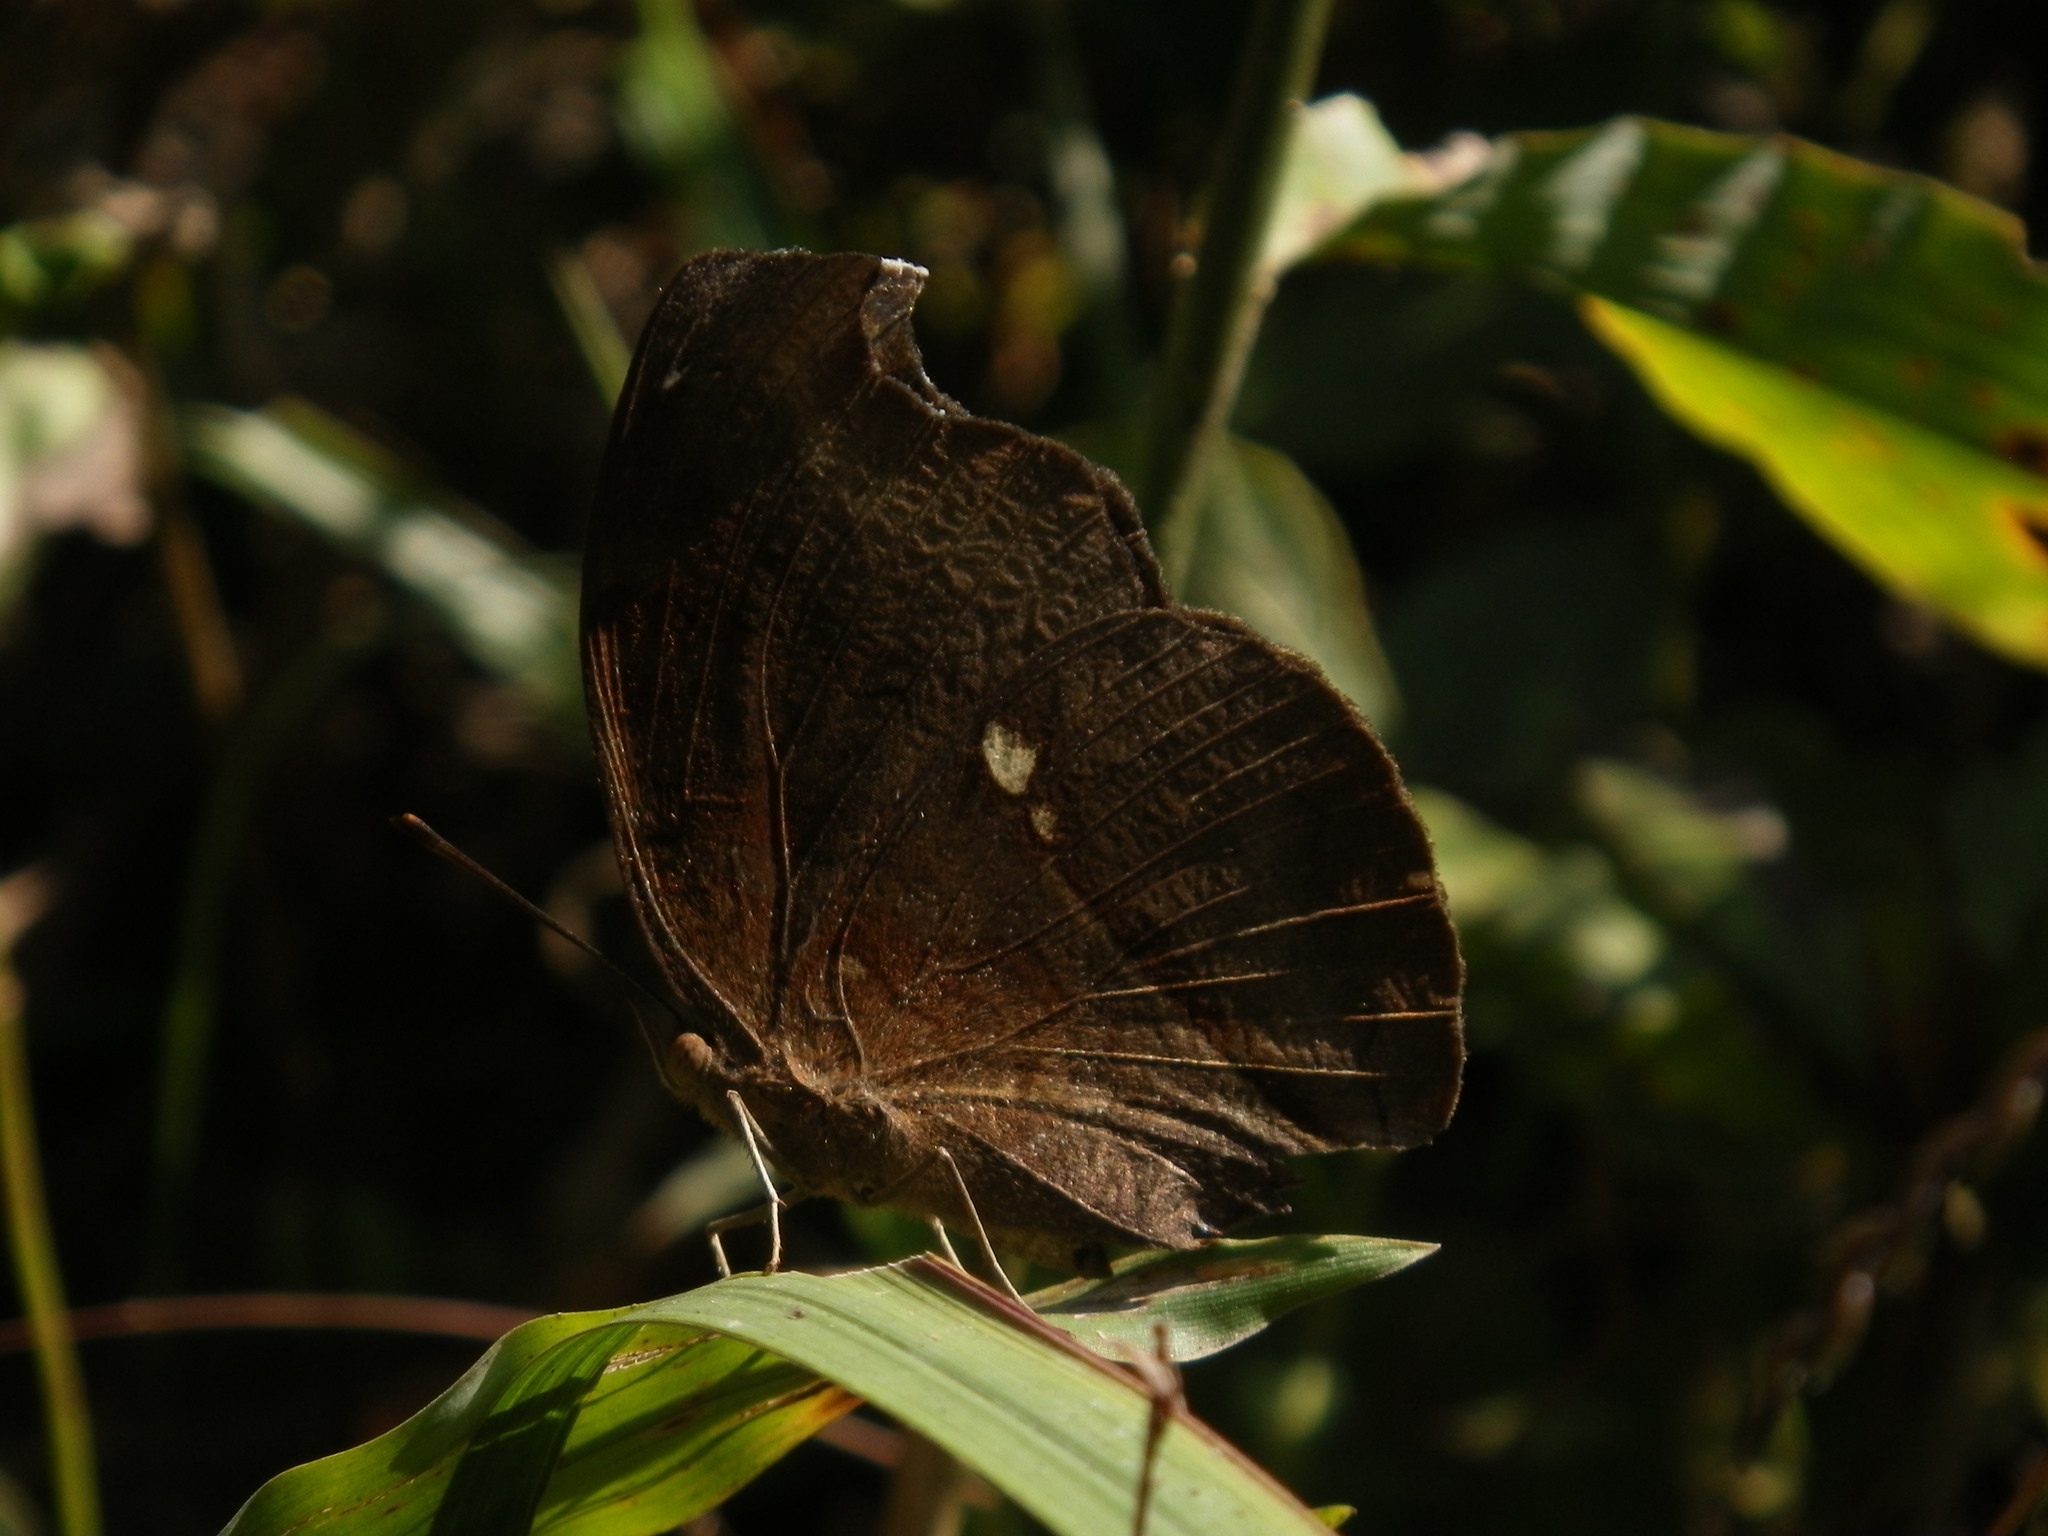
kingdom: Animalia
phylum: Arthropoda
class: Insecta
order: Lepidoptera
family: Nymphalidae
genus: Junonia
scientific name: Junonia iphita
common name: Chocolate pansy
